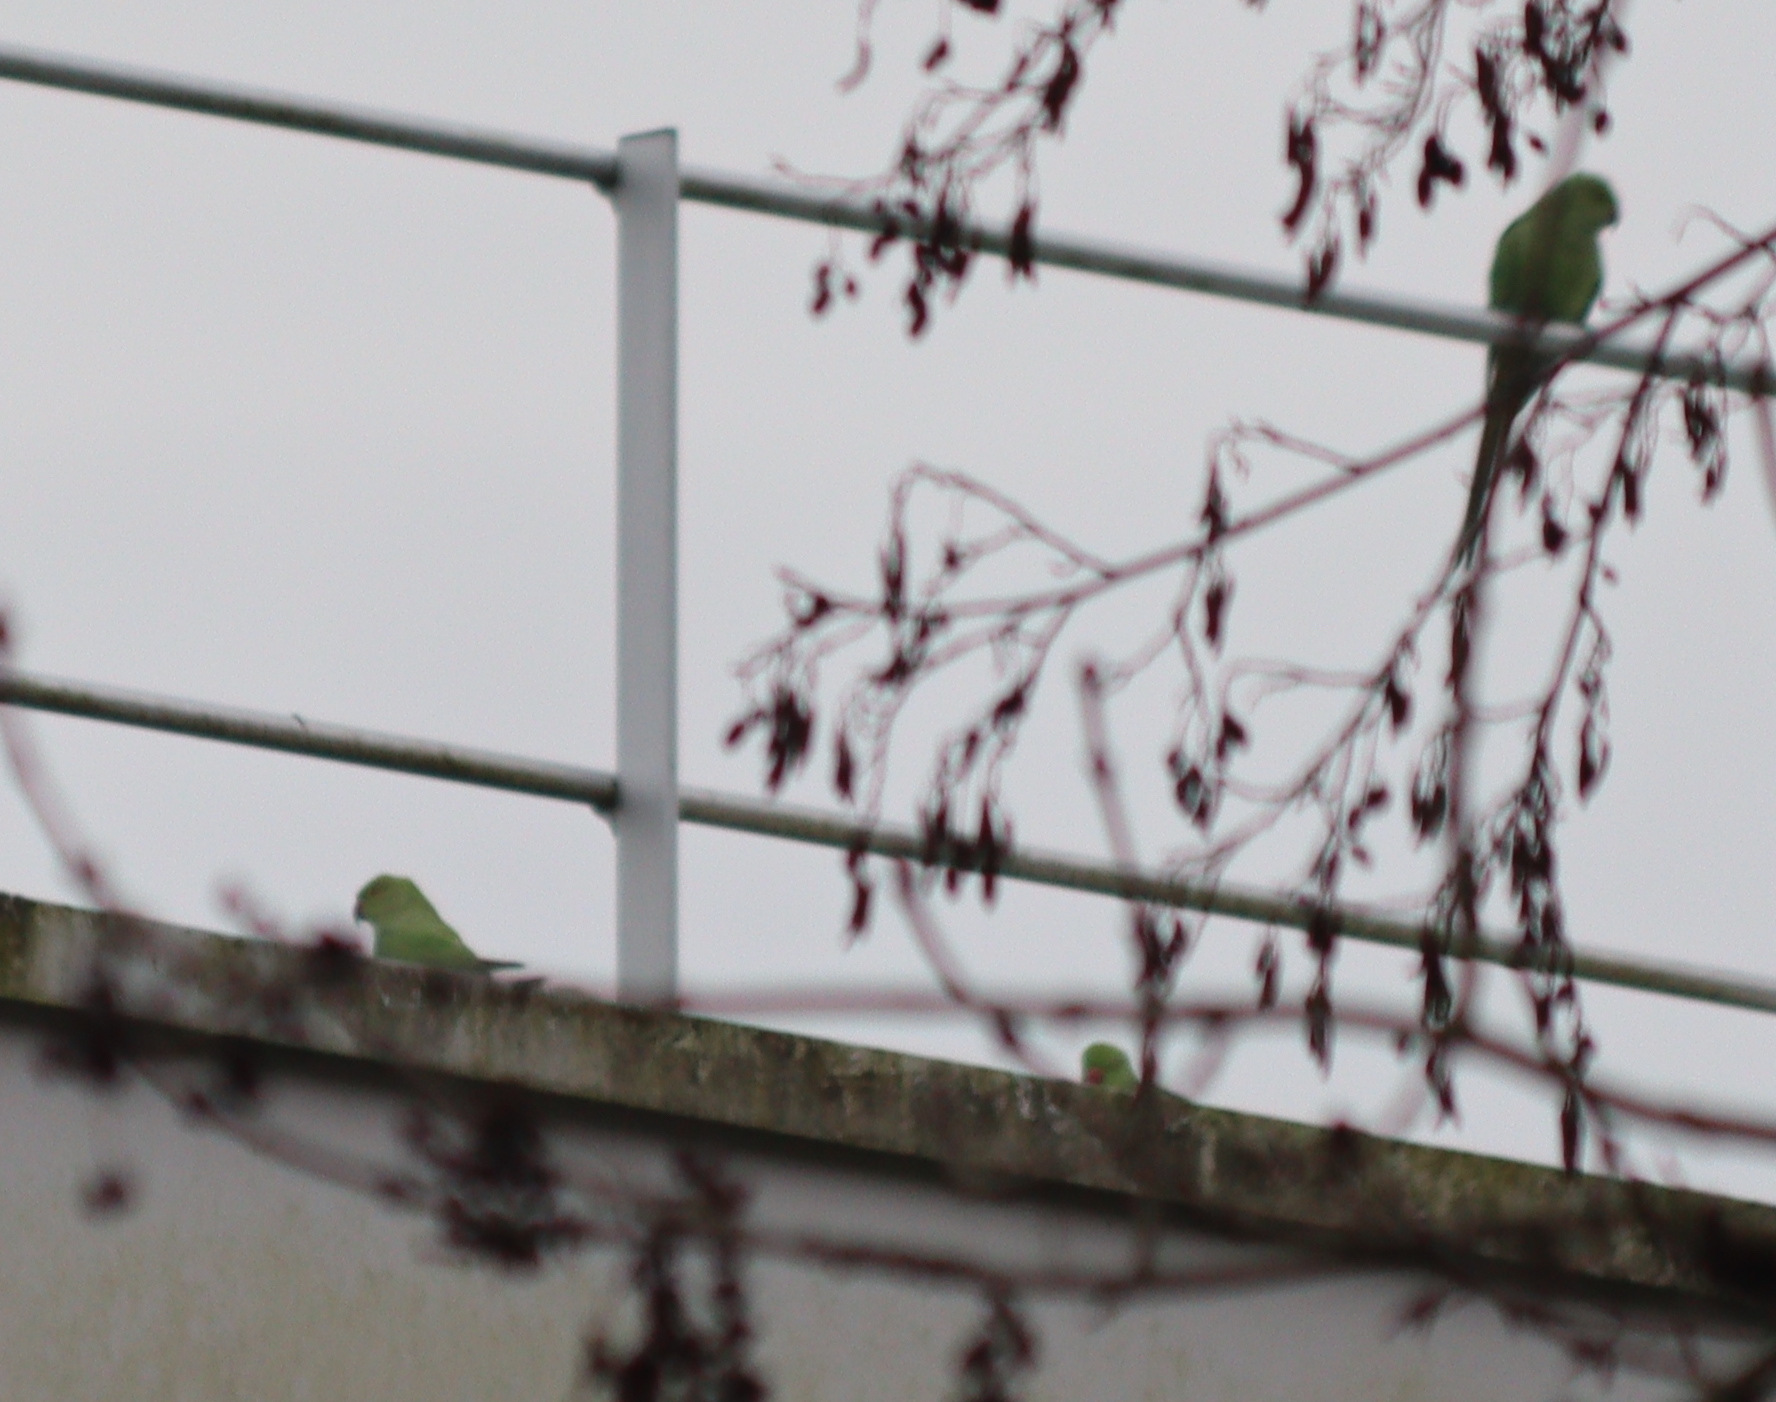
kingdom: Animalia
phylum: Chordata
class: Aves
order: Psittaciformes
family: Psittacidae
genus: Psittacula
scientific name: Psittacula krameri
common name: Rose-ringed parakeet
